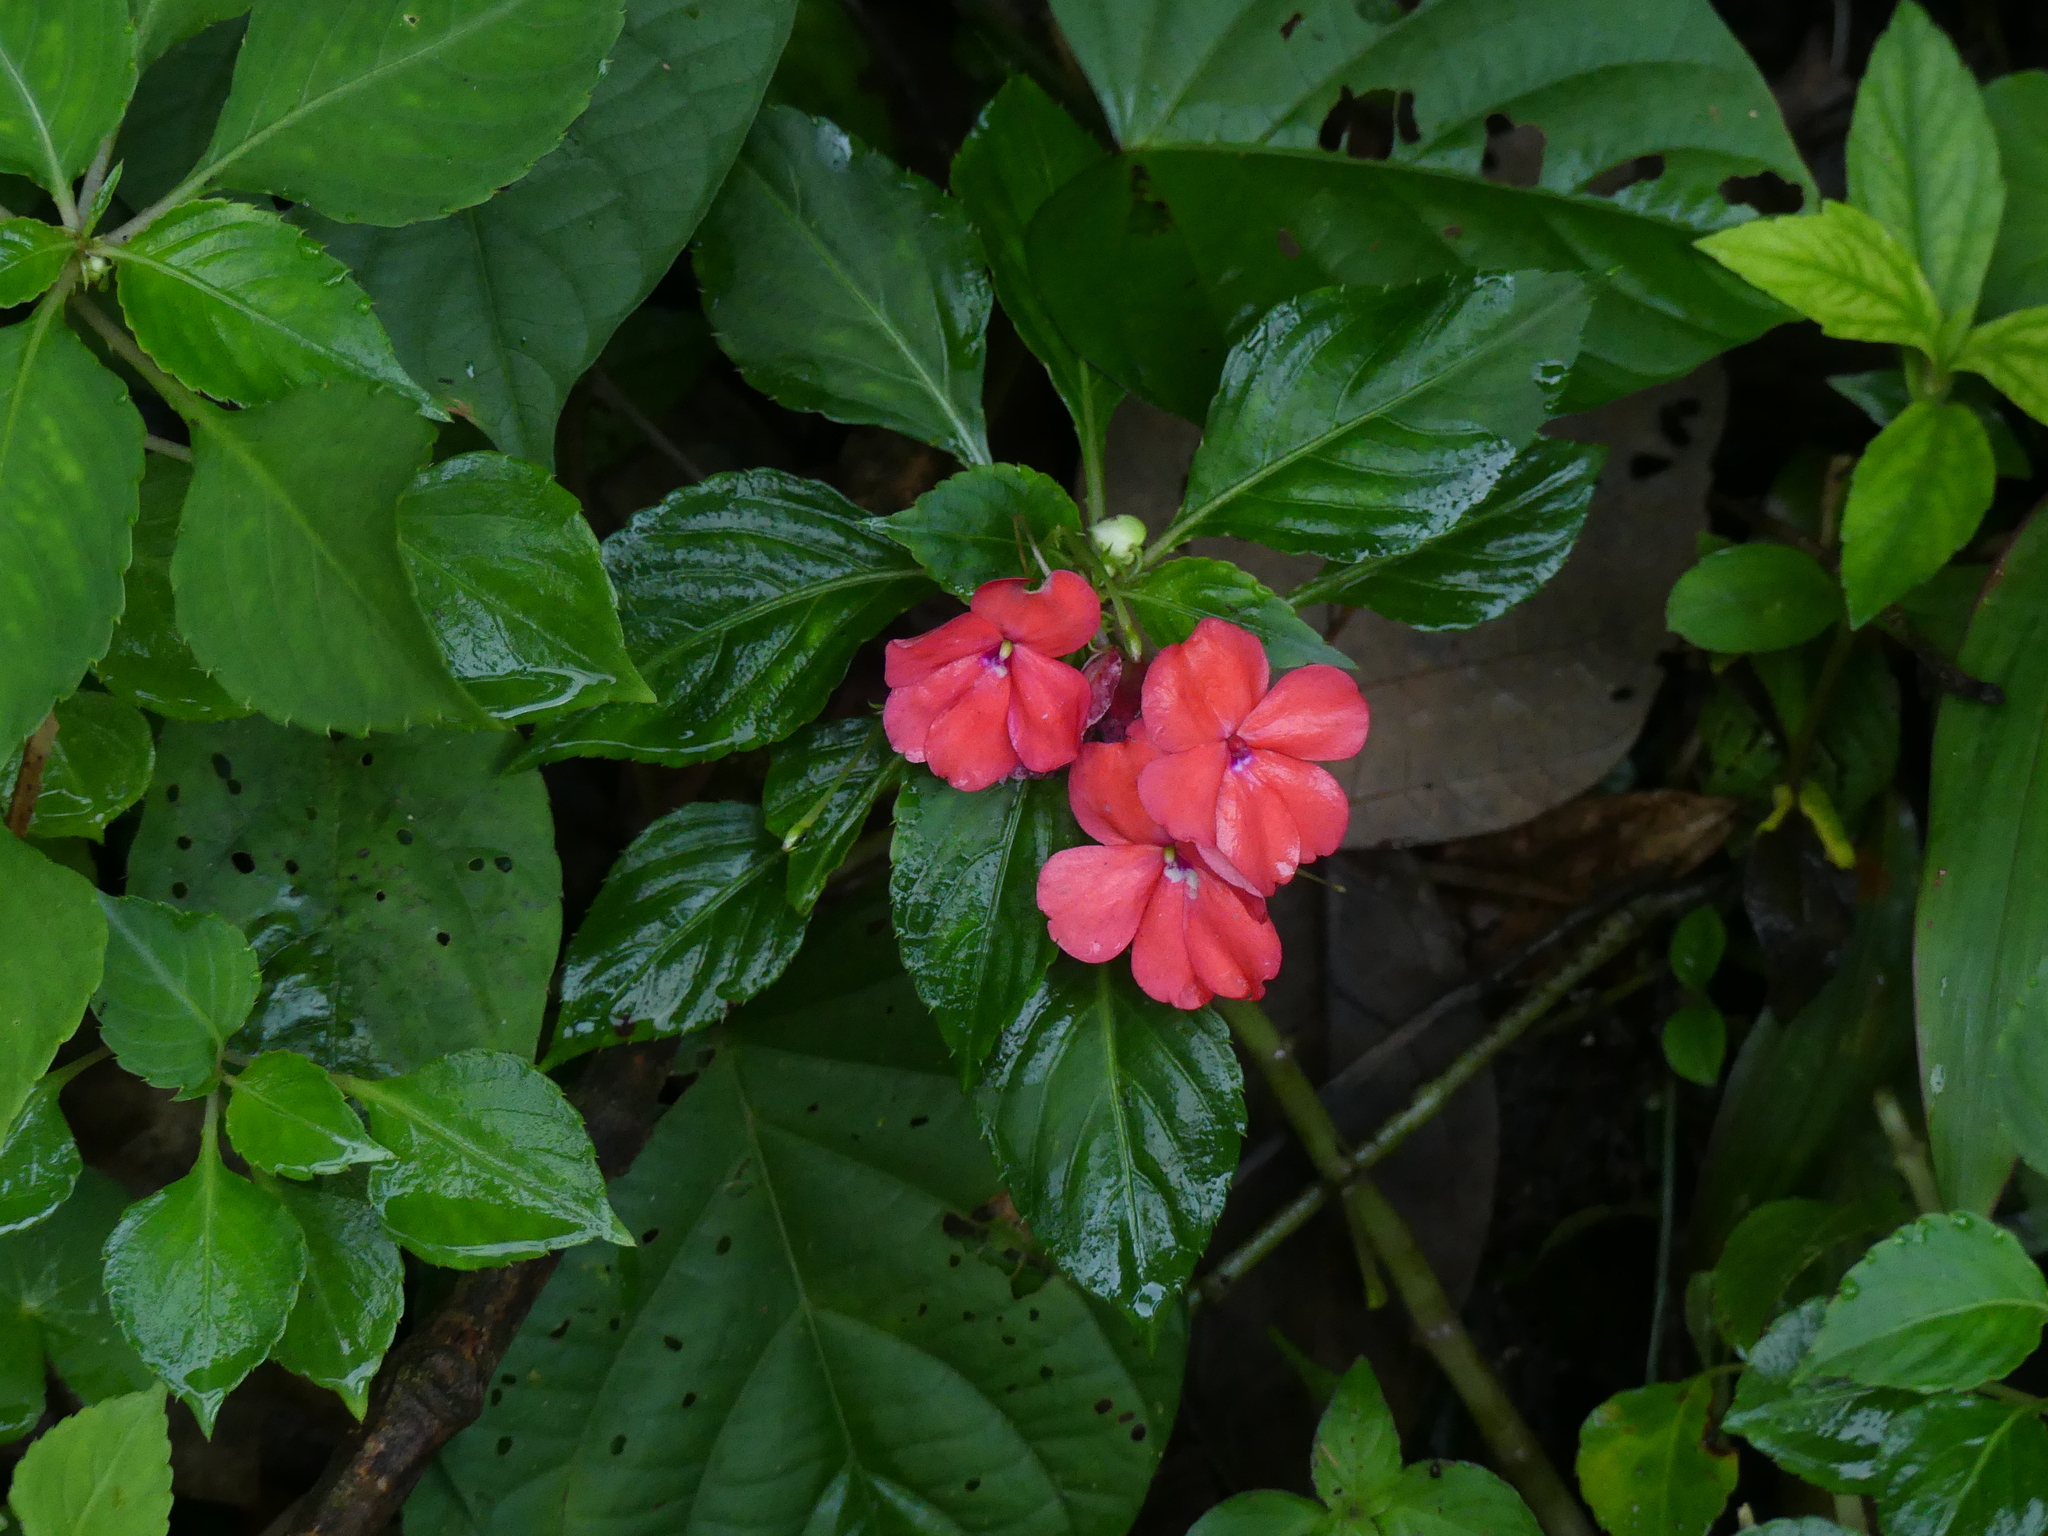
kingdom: Plantae
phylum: Tracheophyta
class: Magnoliopsida
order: Ericales
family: Balsaminaceae
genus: Impatiens
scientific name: Impatiens walleriana
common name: Buzzy lizzy
